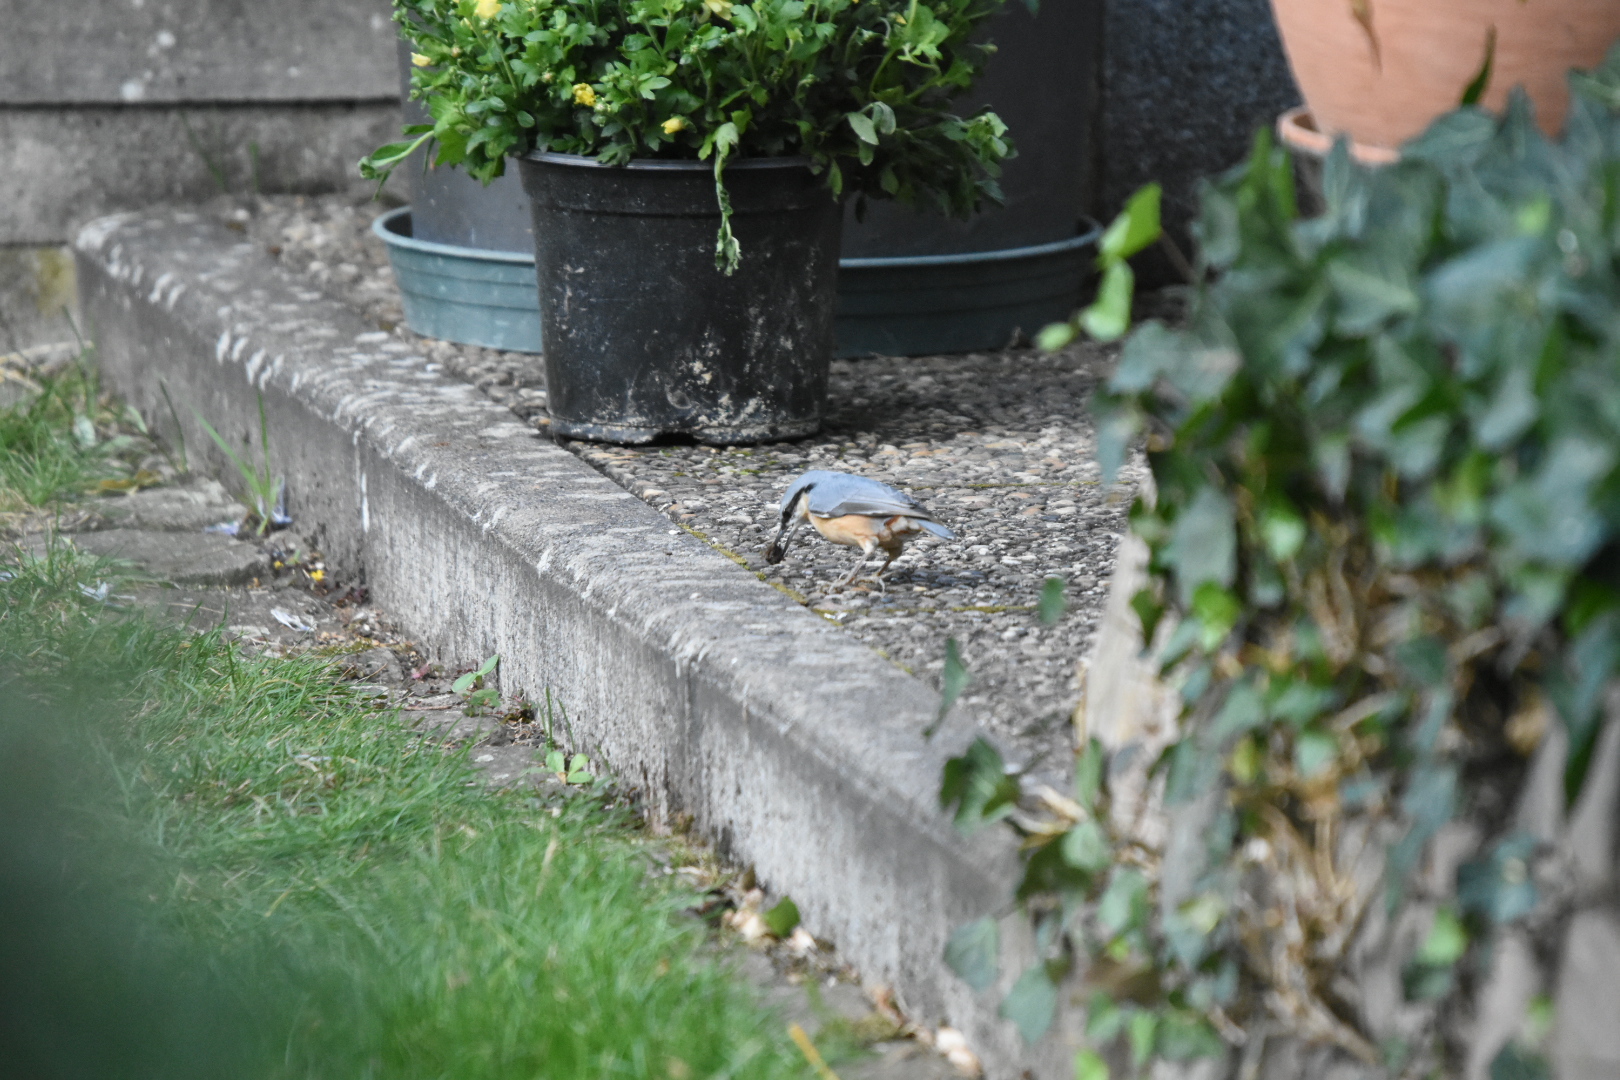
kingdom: Animalia
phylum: Chordata
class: Aves
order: Passeriformes
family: Sittidae
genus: Sitta
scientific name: Sitta europaea
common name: Eurasian nuthatch
